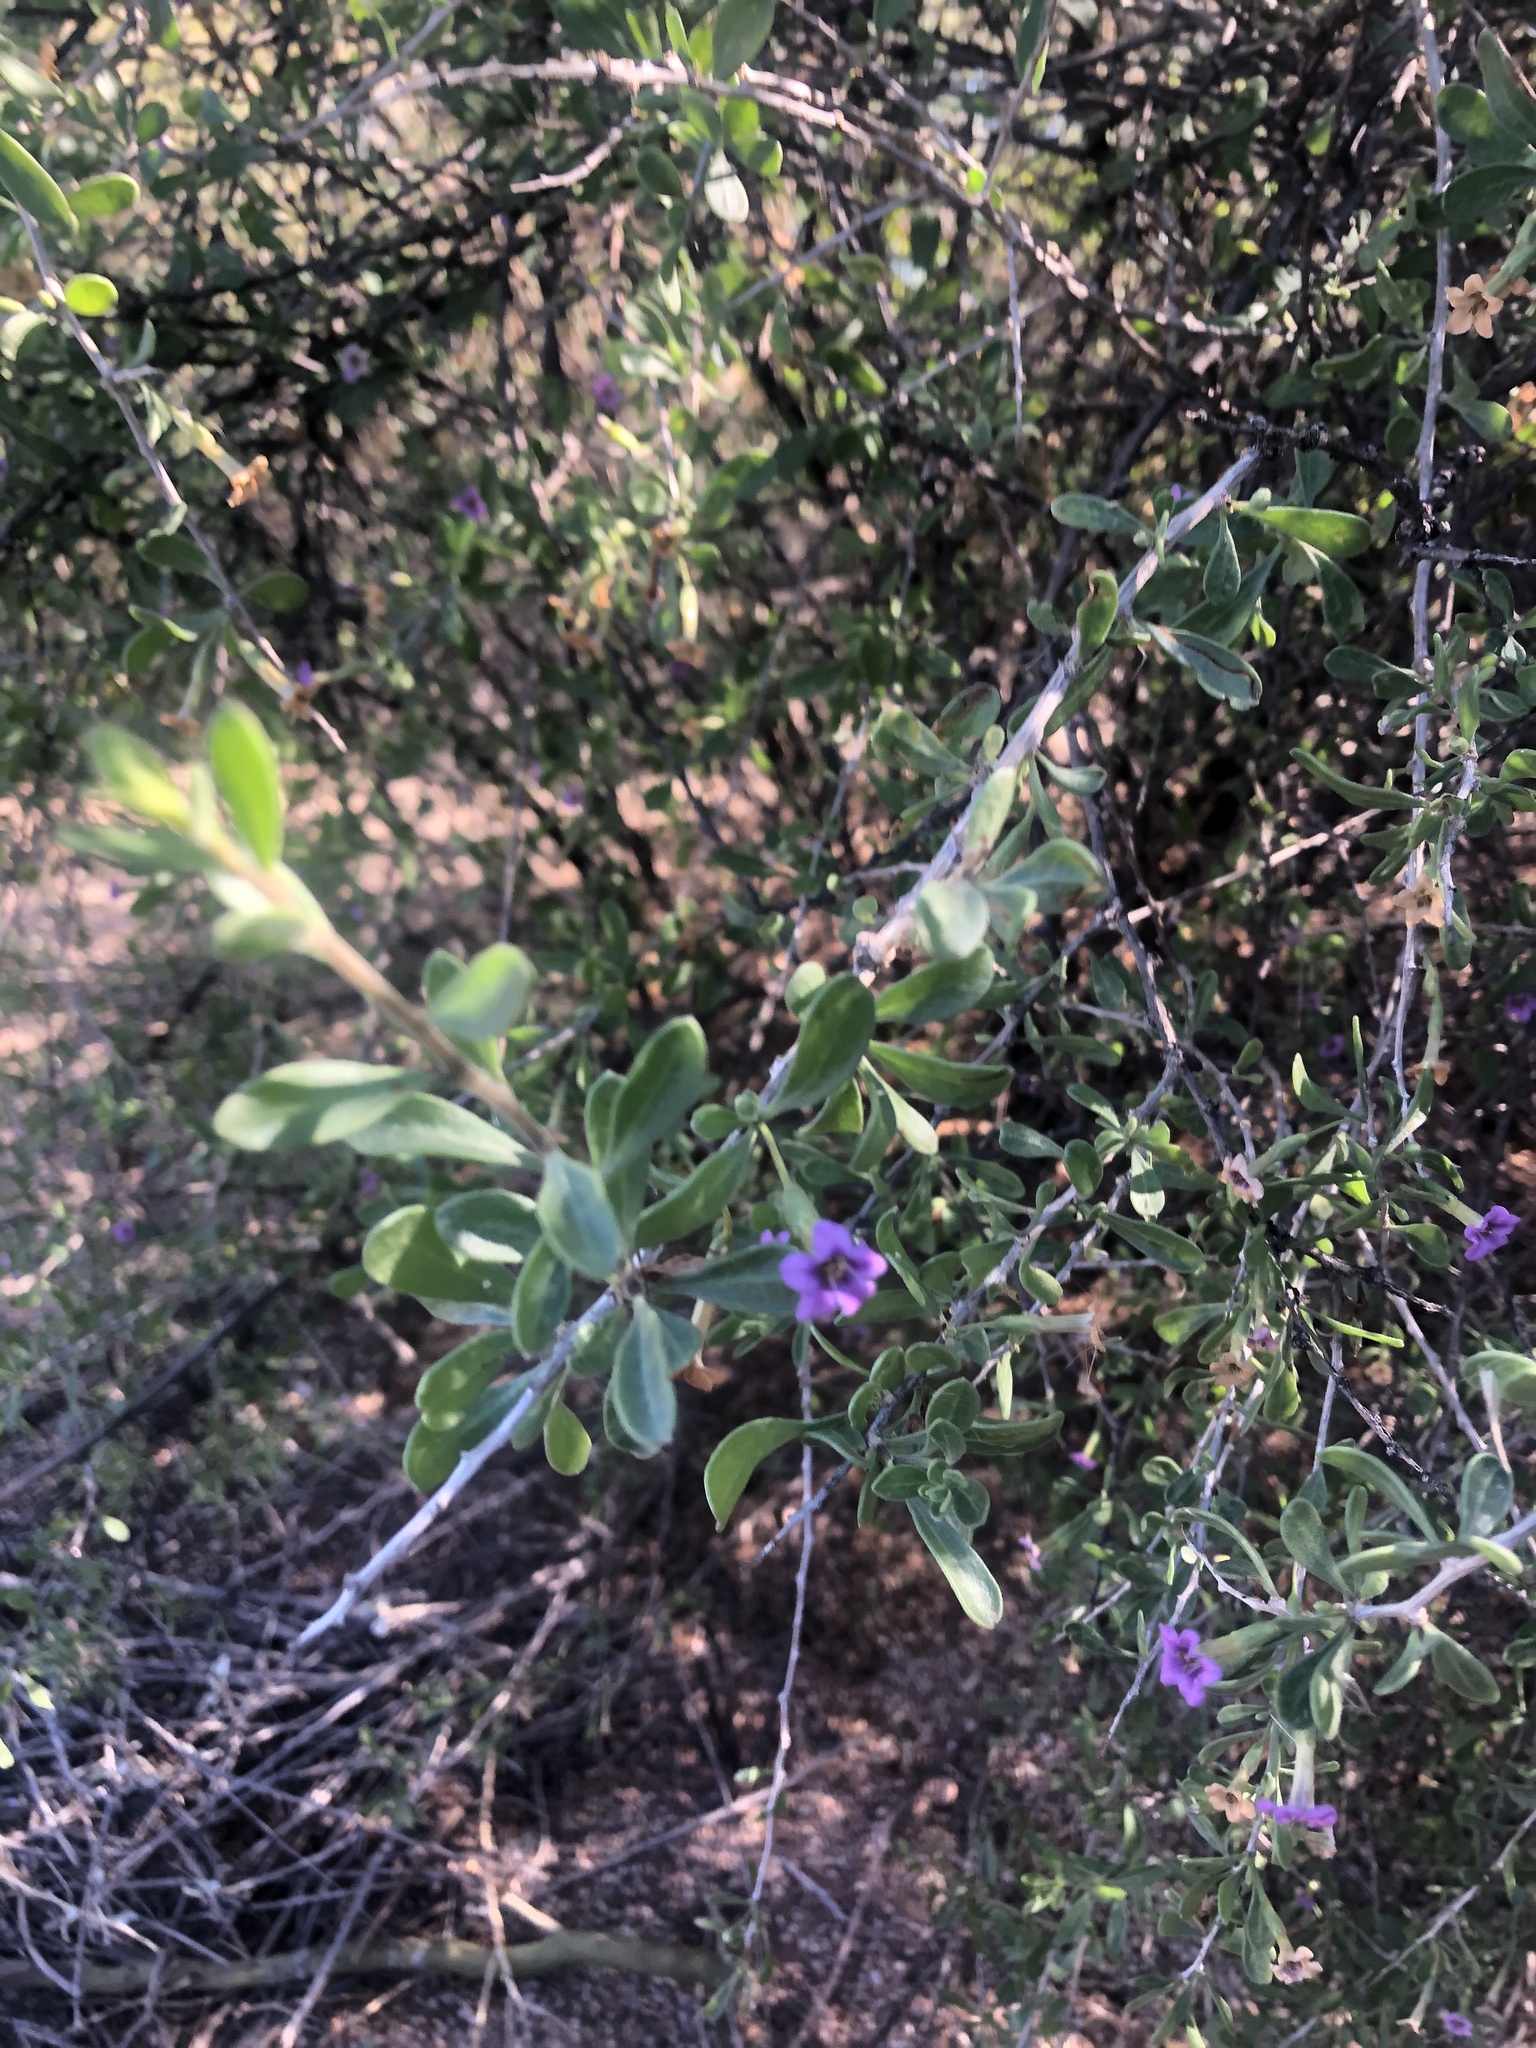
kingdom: Plantae
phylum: Tracheophyta
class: Magnoliopsida
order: Solanales
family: Solanaceae
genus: Lycium
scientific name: Lycium fremontii
